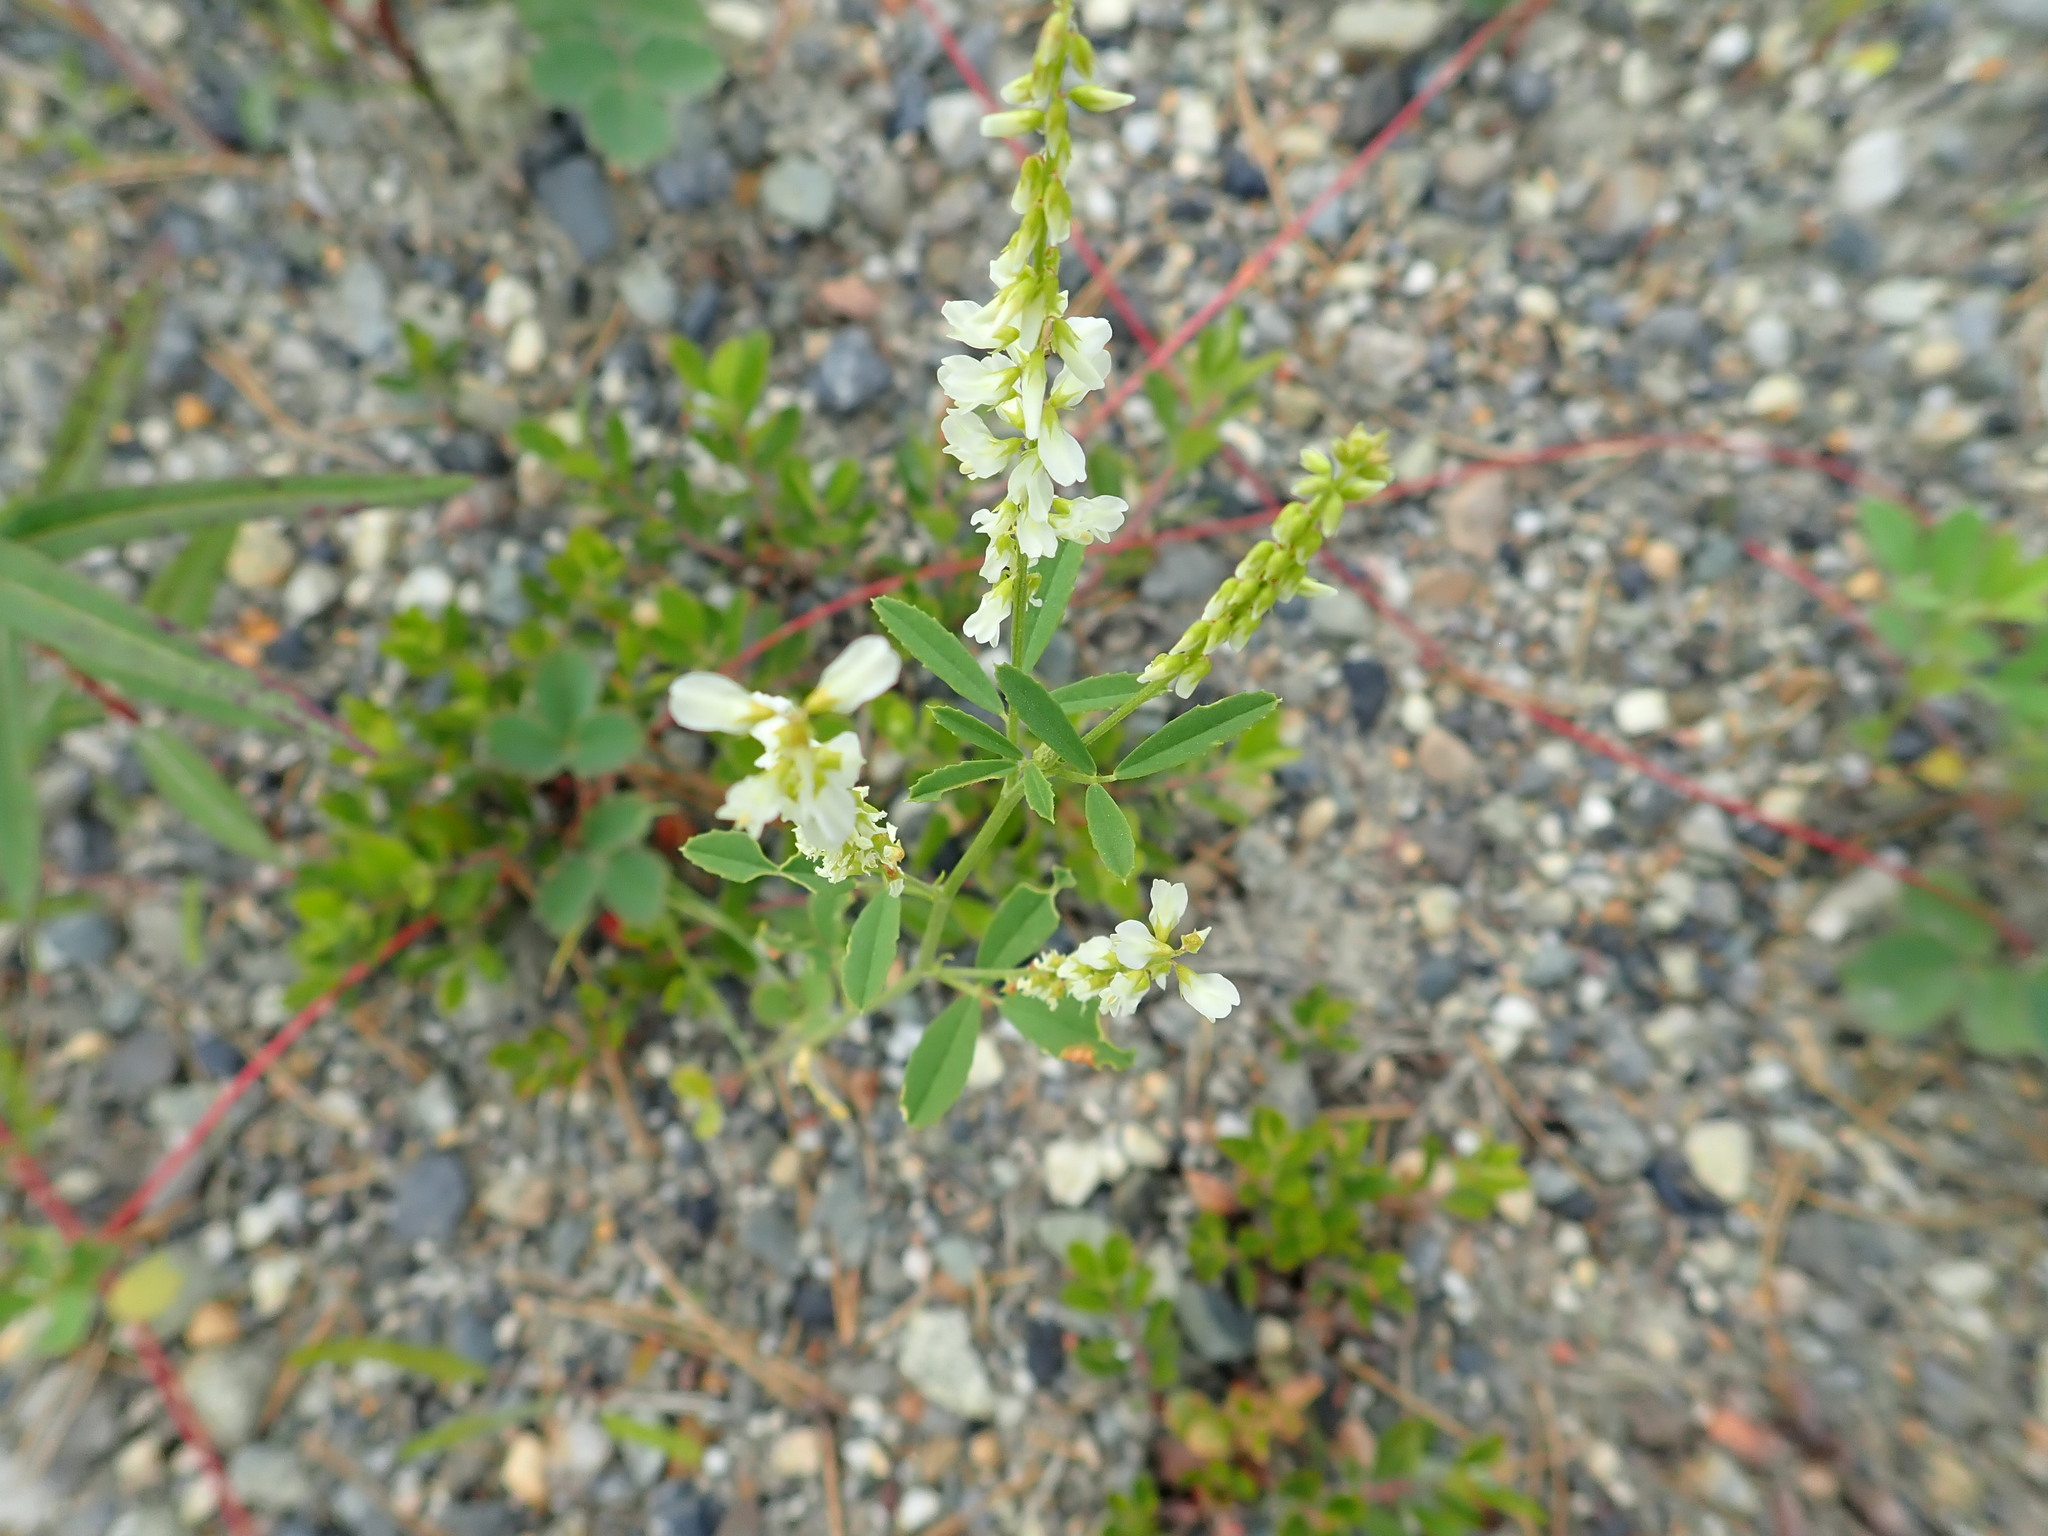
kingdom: Plantae
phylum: Tracheophyta
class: Magnoliopsida
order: Fabales
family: Fabaceae
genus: Melilotus
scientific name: Melilotus albus
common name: White melilot
